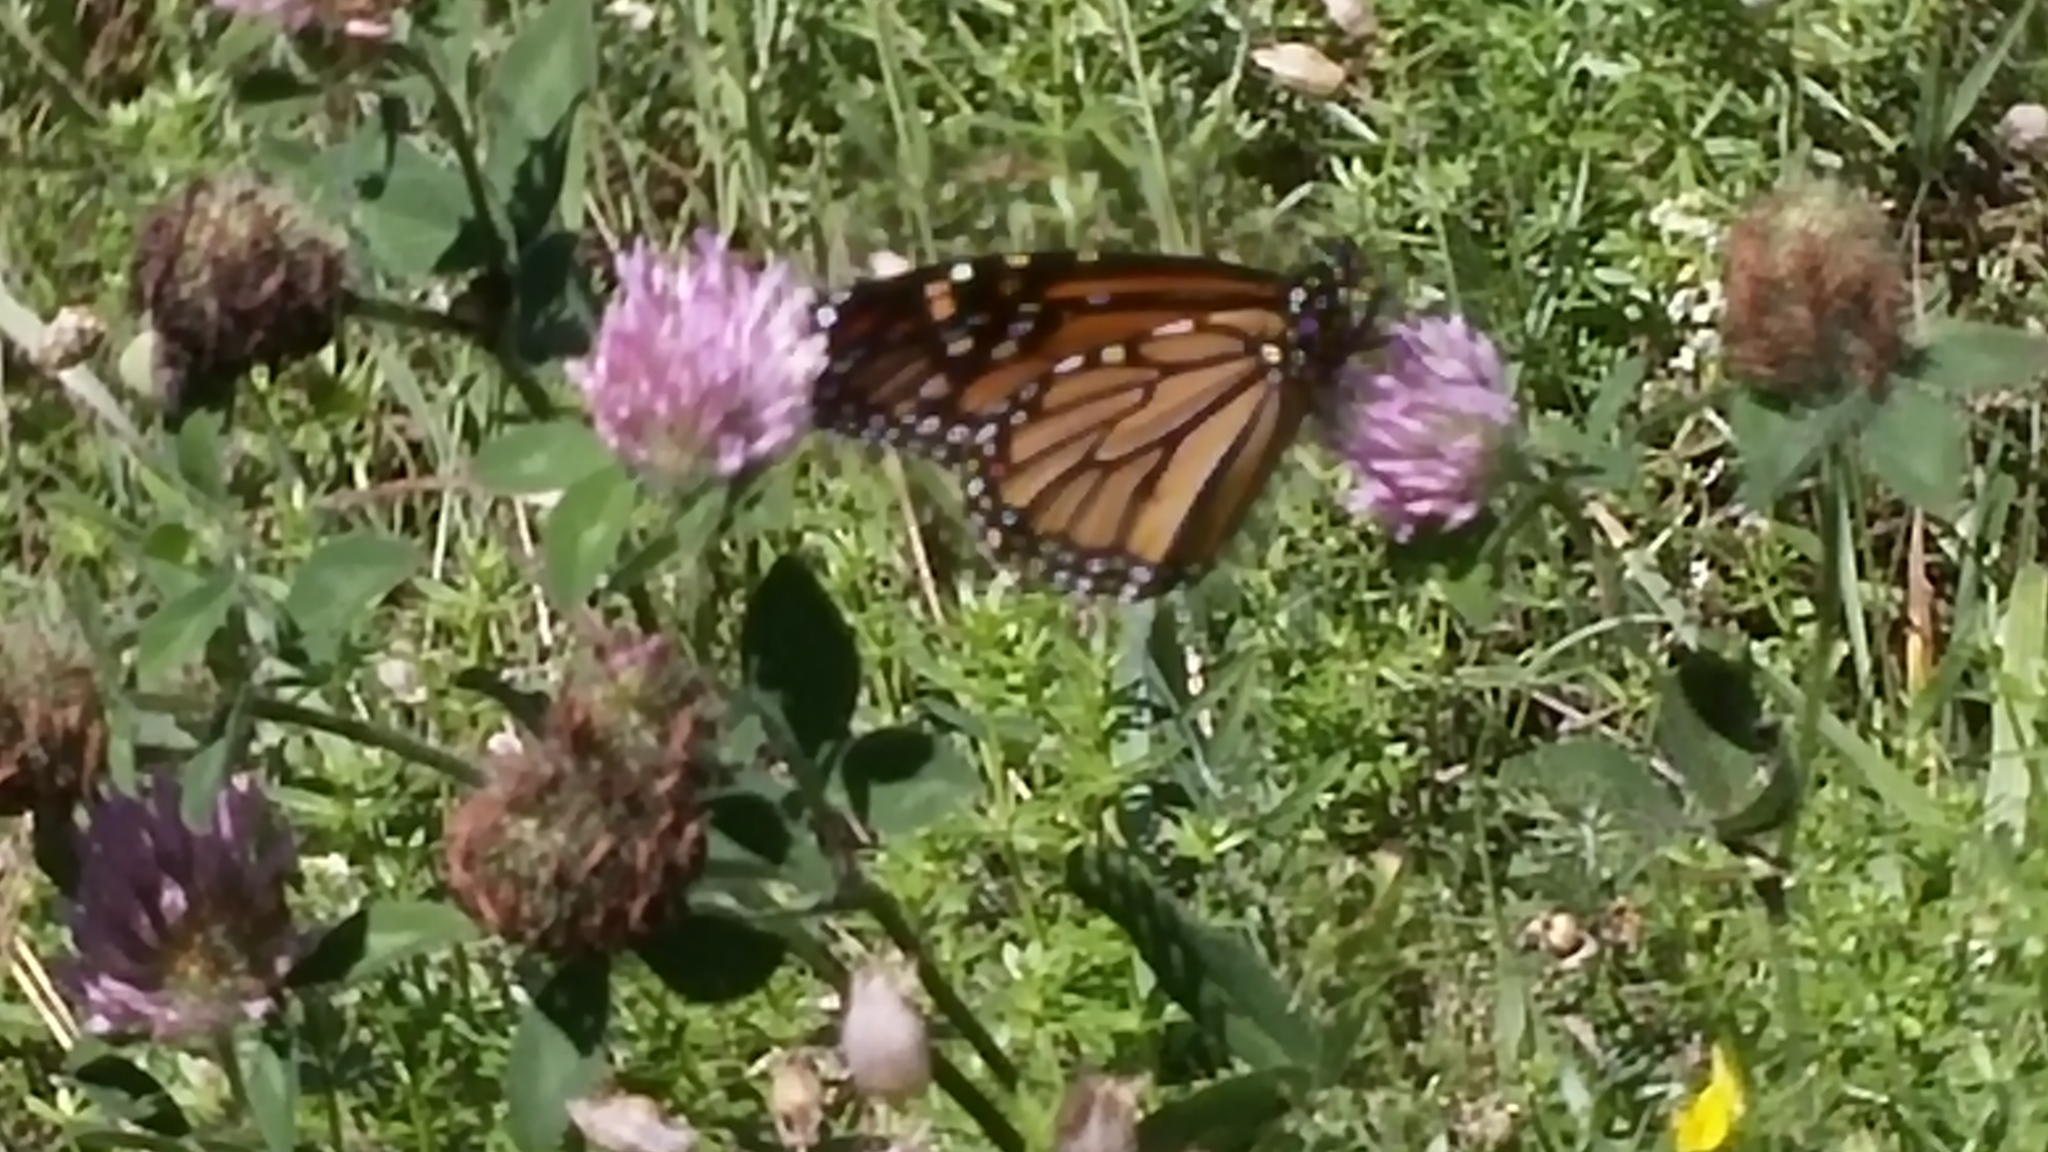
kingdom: Animalia
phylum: Arthropoda
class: Insecta
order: Lepidoptera
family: Nymphalidae
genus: Danaus
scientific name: Danaus plexippus
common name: Monarch
